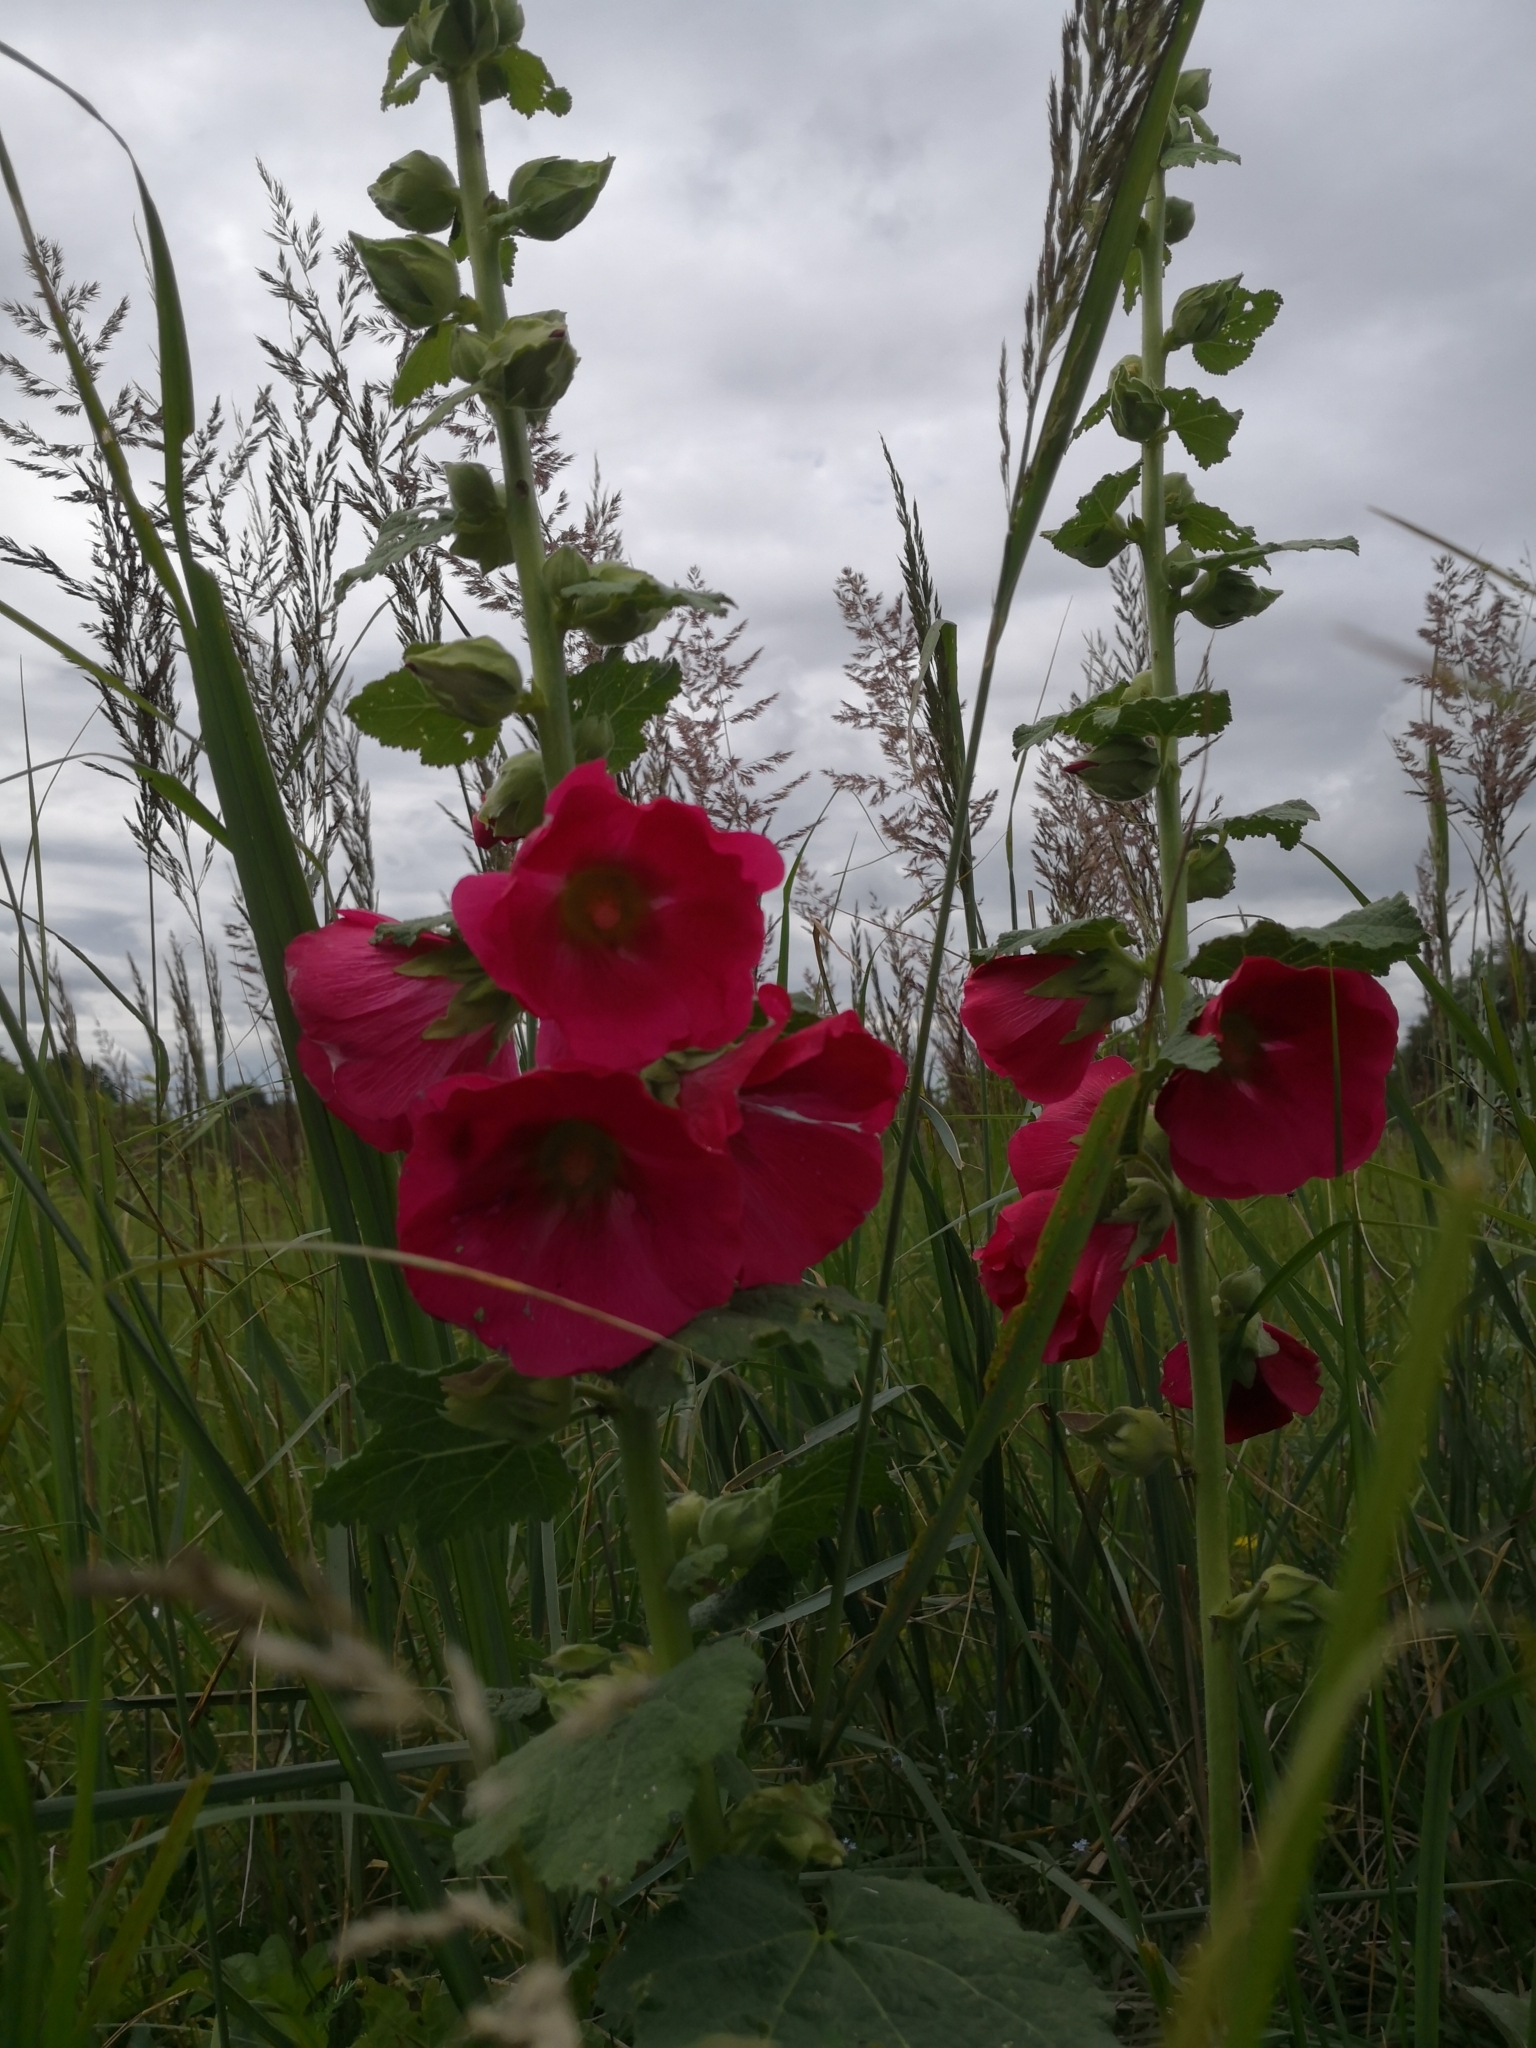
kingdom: Plantae
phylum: Tracheophyta
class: Magnoliopsida
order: Malvales
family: Malvaceae
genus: Alcea
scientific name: Alcea rosea
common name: Hollyhock
